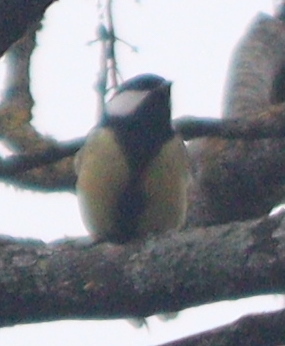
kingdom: Animalia
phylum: Chordata
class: Aves
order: Passeriformes
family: Paridae
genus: Parus
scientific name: Parus major
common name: Great tit
